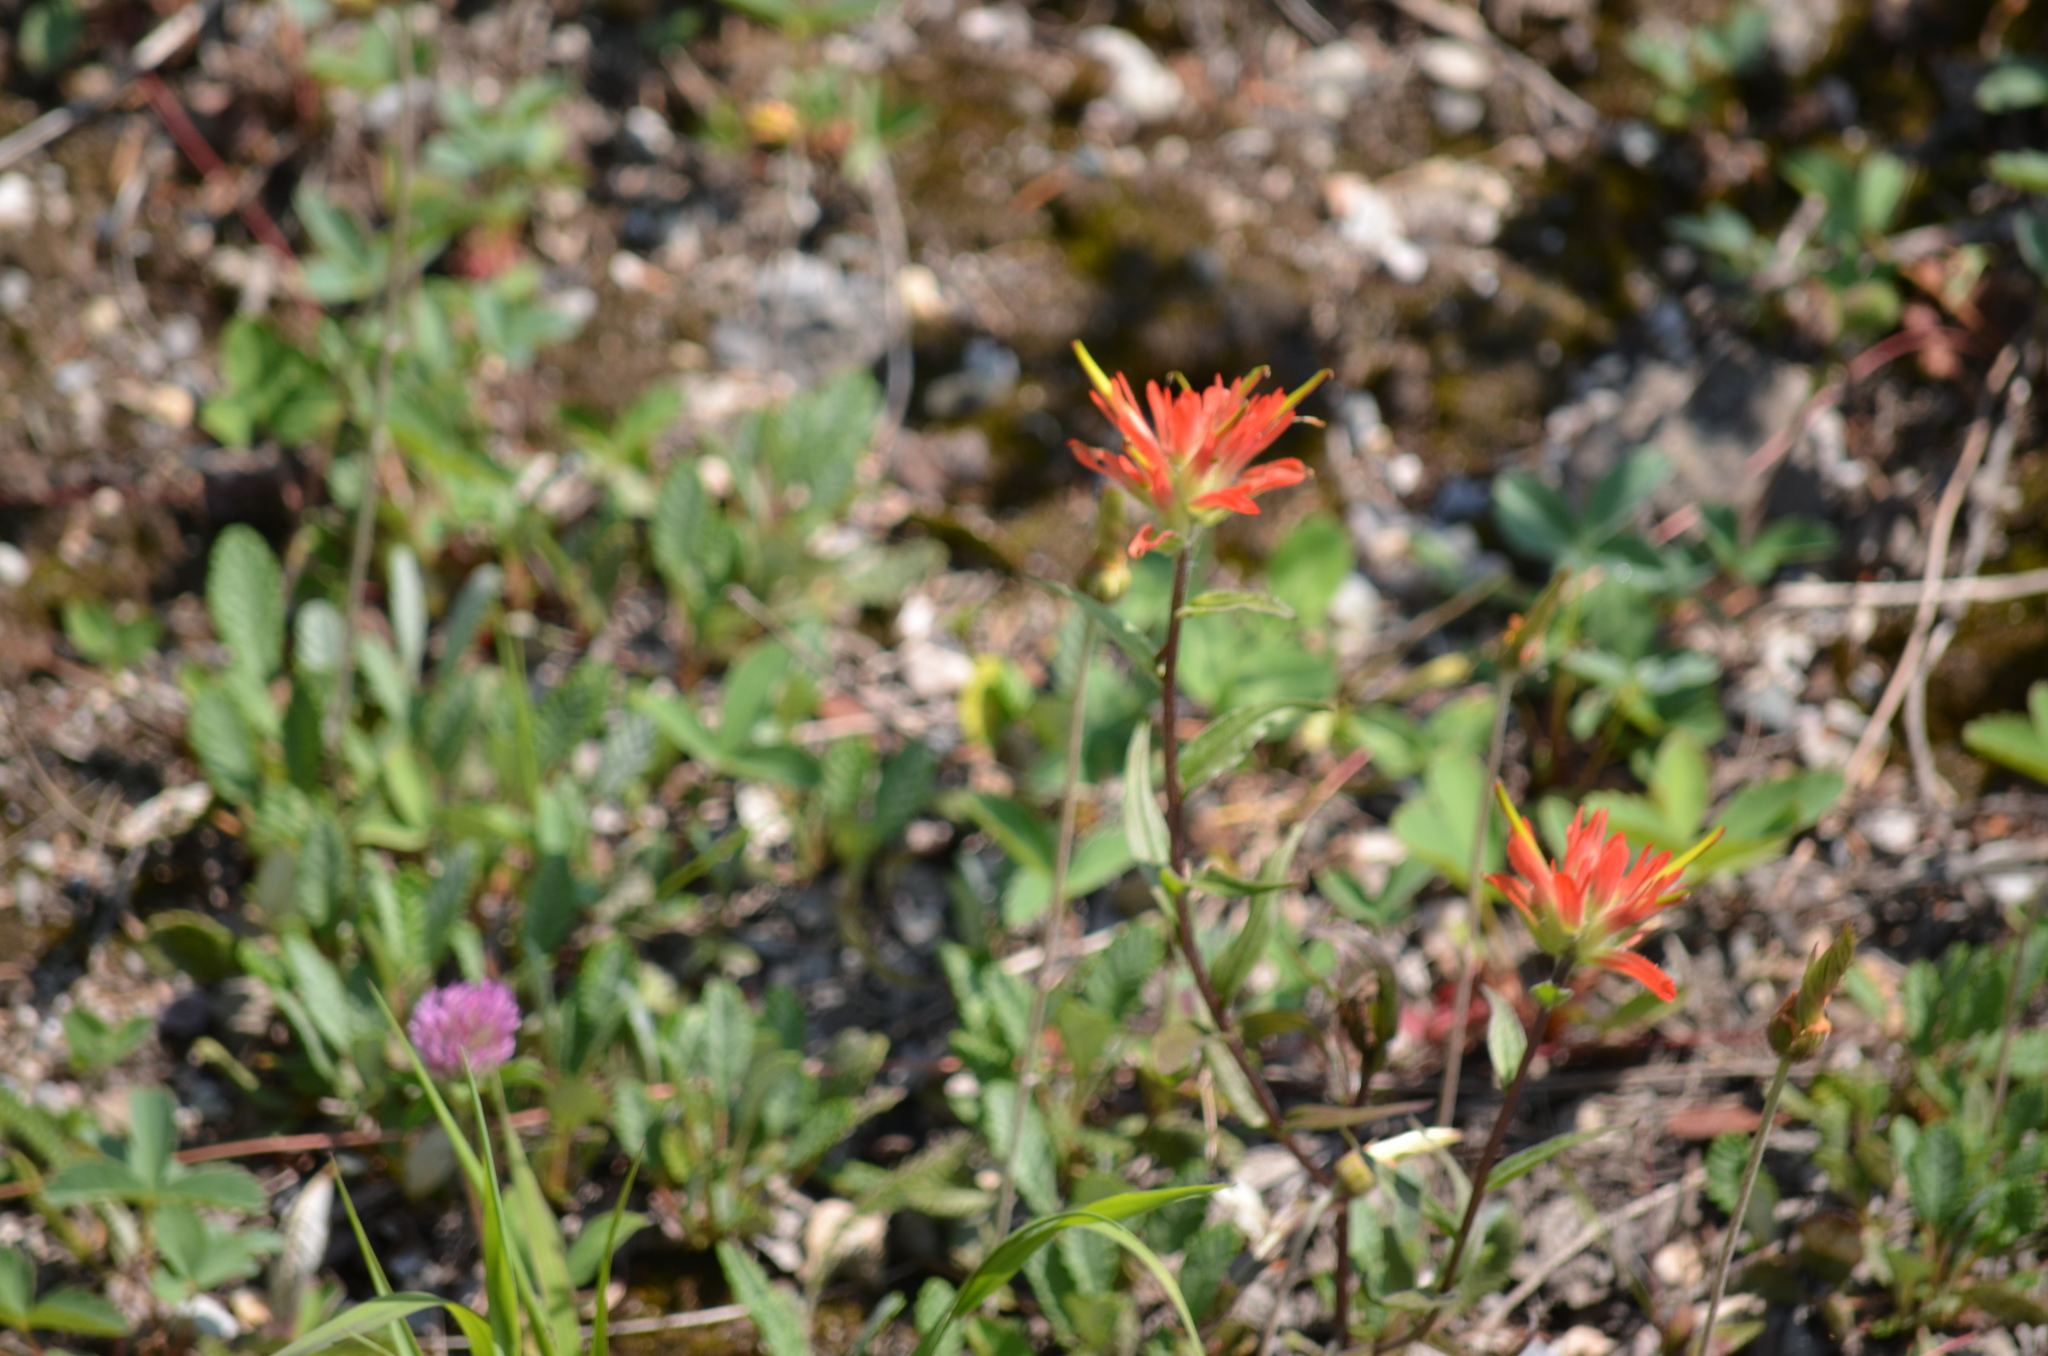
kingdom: Plantae
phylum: Tracheophyta
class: Magnoliopsida
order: Lamiales
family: Orobanchaceae
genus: Castilleja
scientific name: Castilleja miniata
